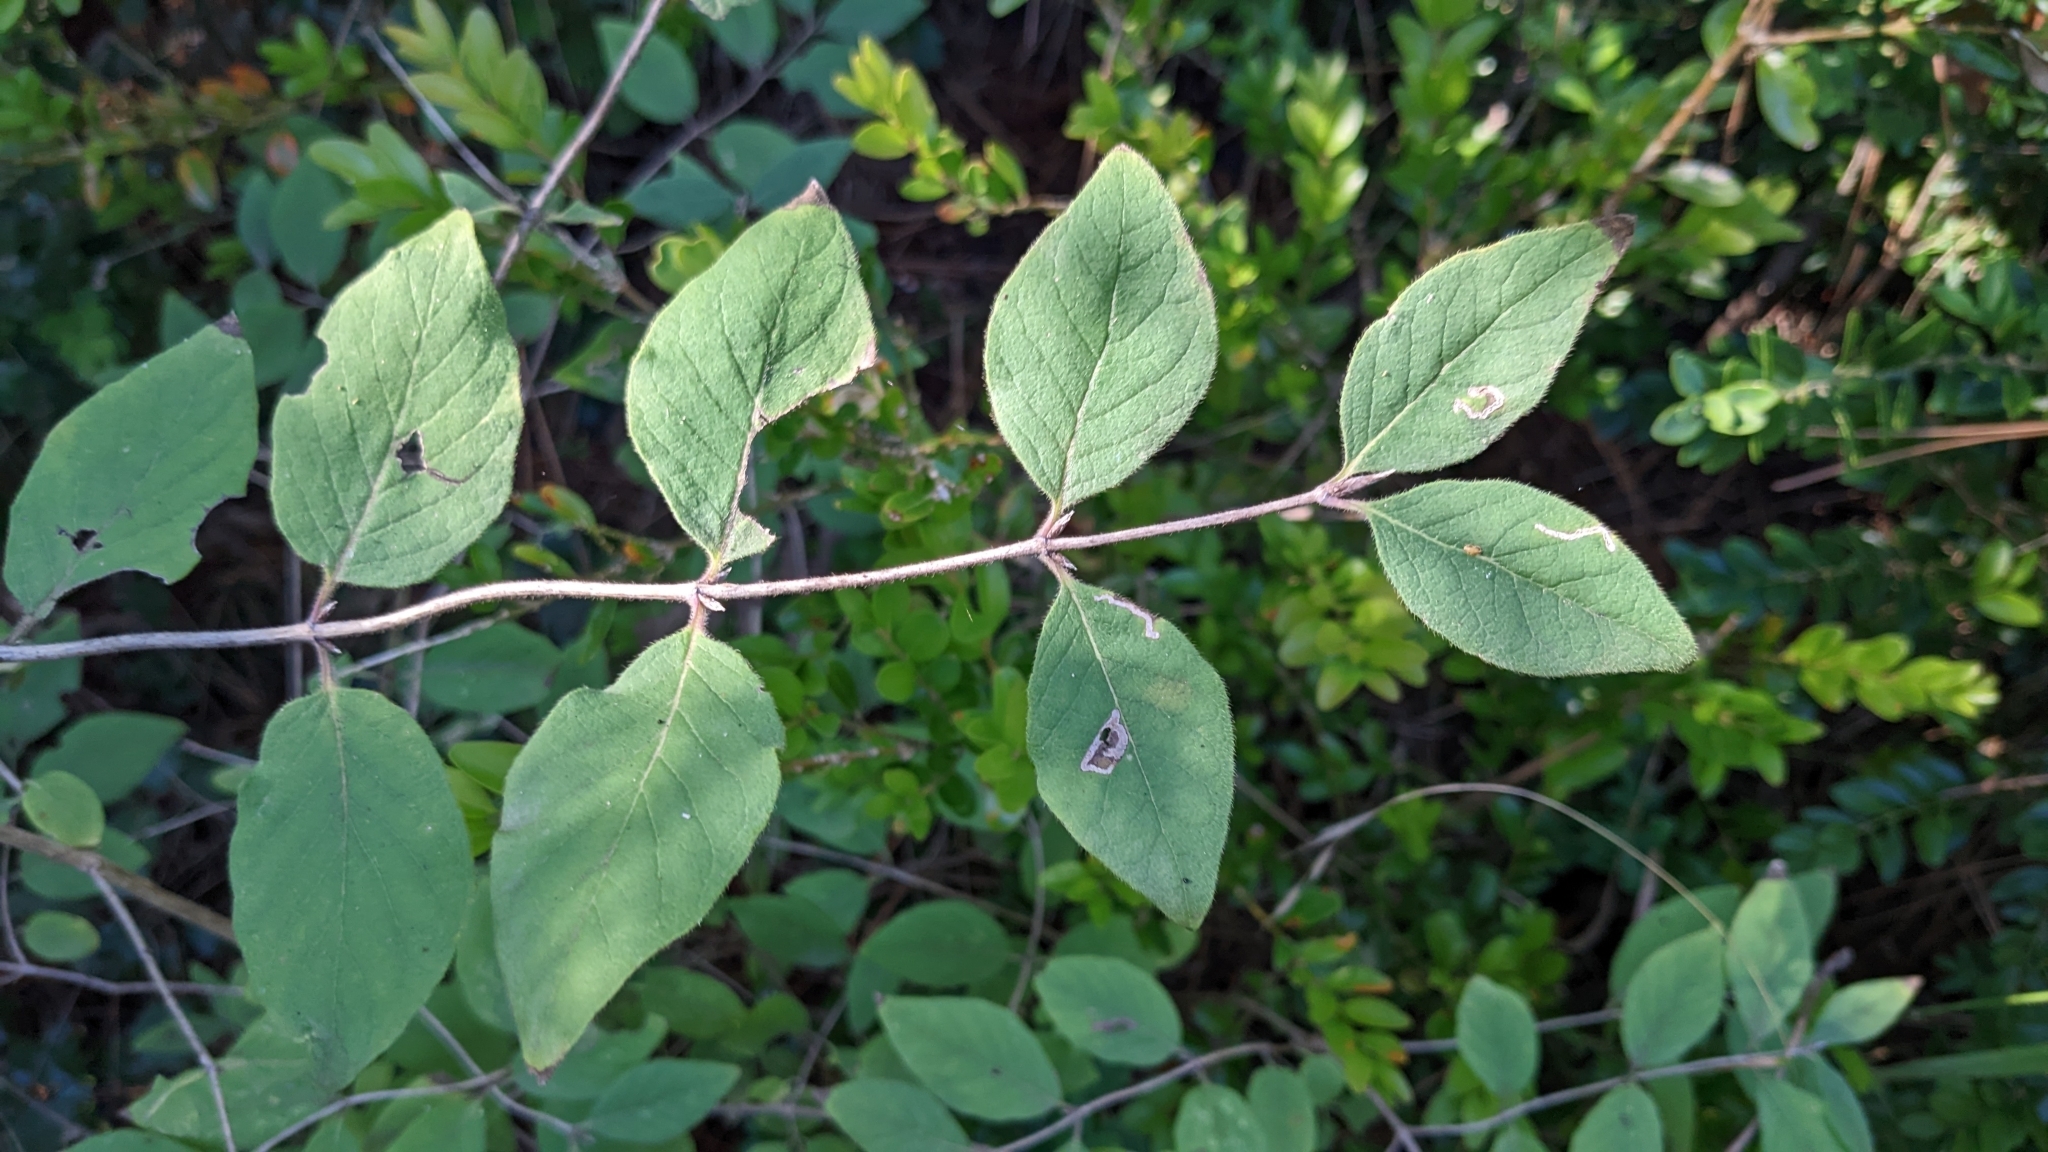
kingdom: Plantae
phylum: Tracheophyta
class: Magnoliopsida
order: Dipsacales
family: Caprifoliaceae
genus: Lonicera
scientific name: Lonicera xylosteum
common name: Fly honeysuckle
